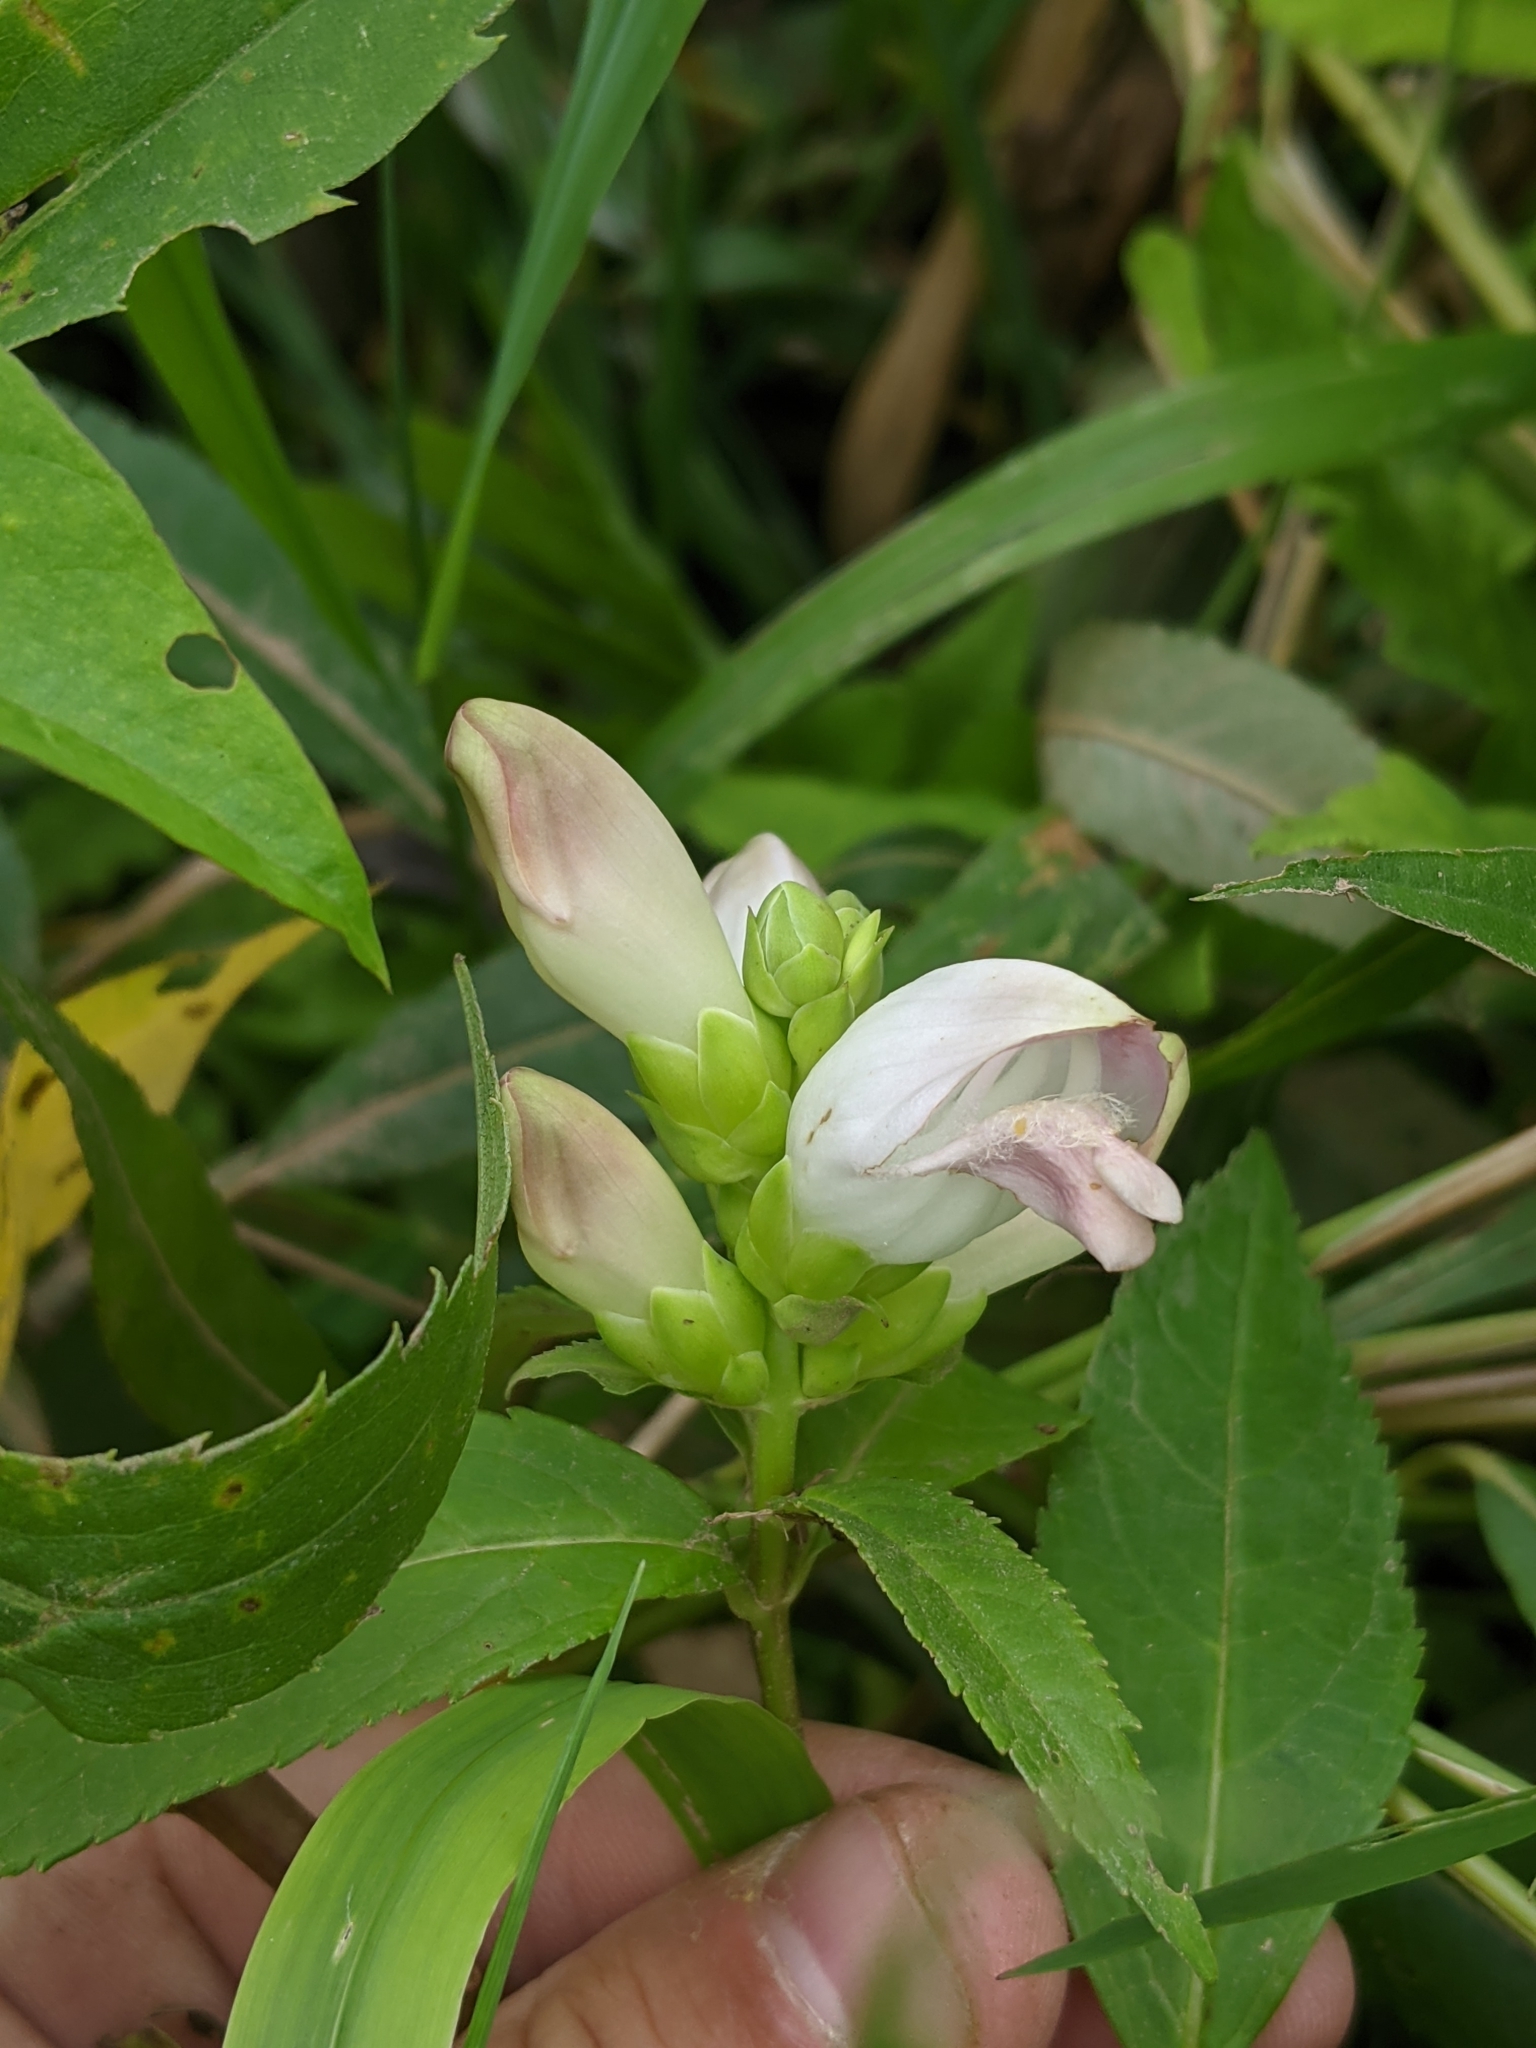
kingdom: Plantae
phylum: Tracheophyta
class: Magnoliopsida
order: Lamiales
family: Plantaginaceae
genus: Chelone
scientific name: Chelone glabra
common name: Snakehead
